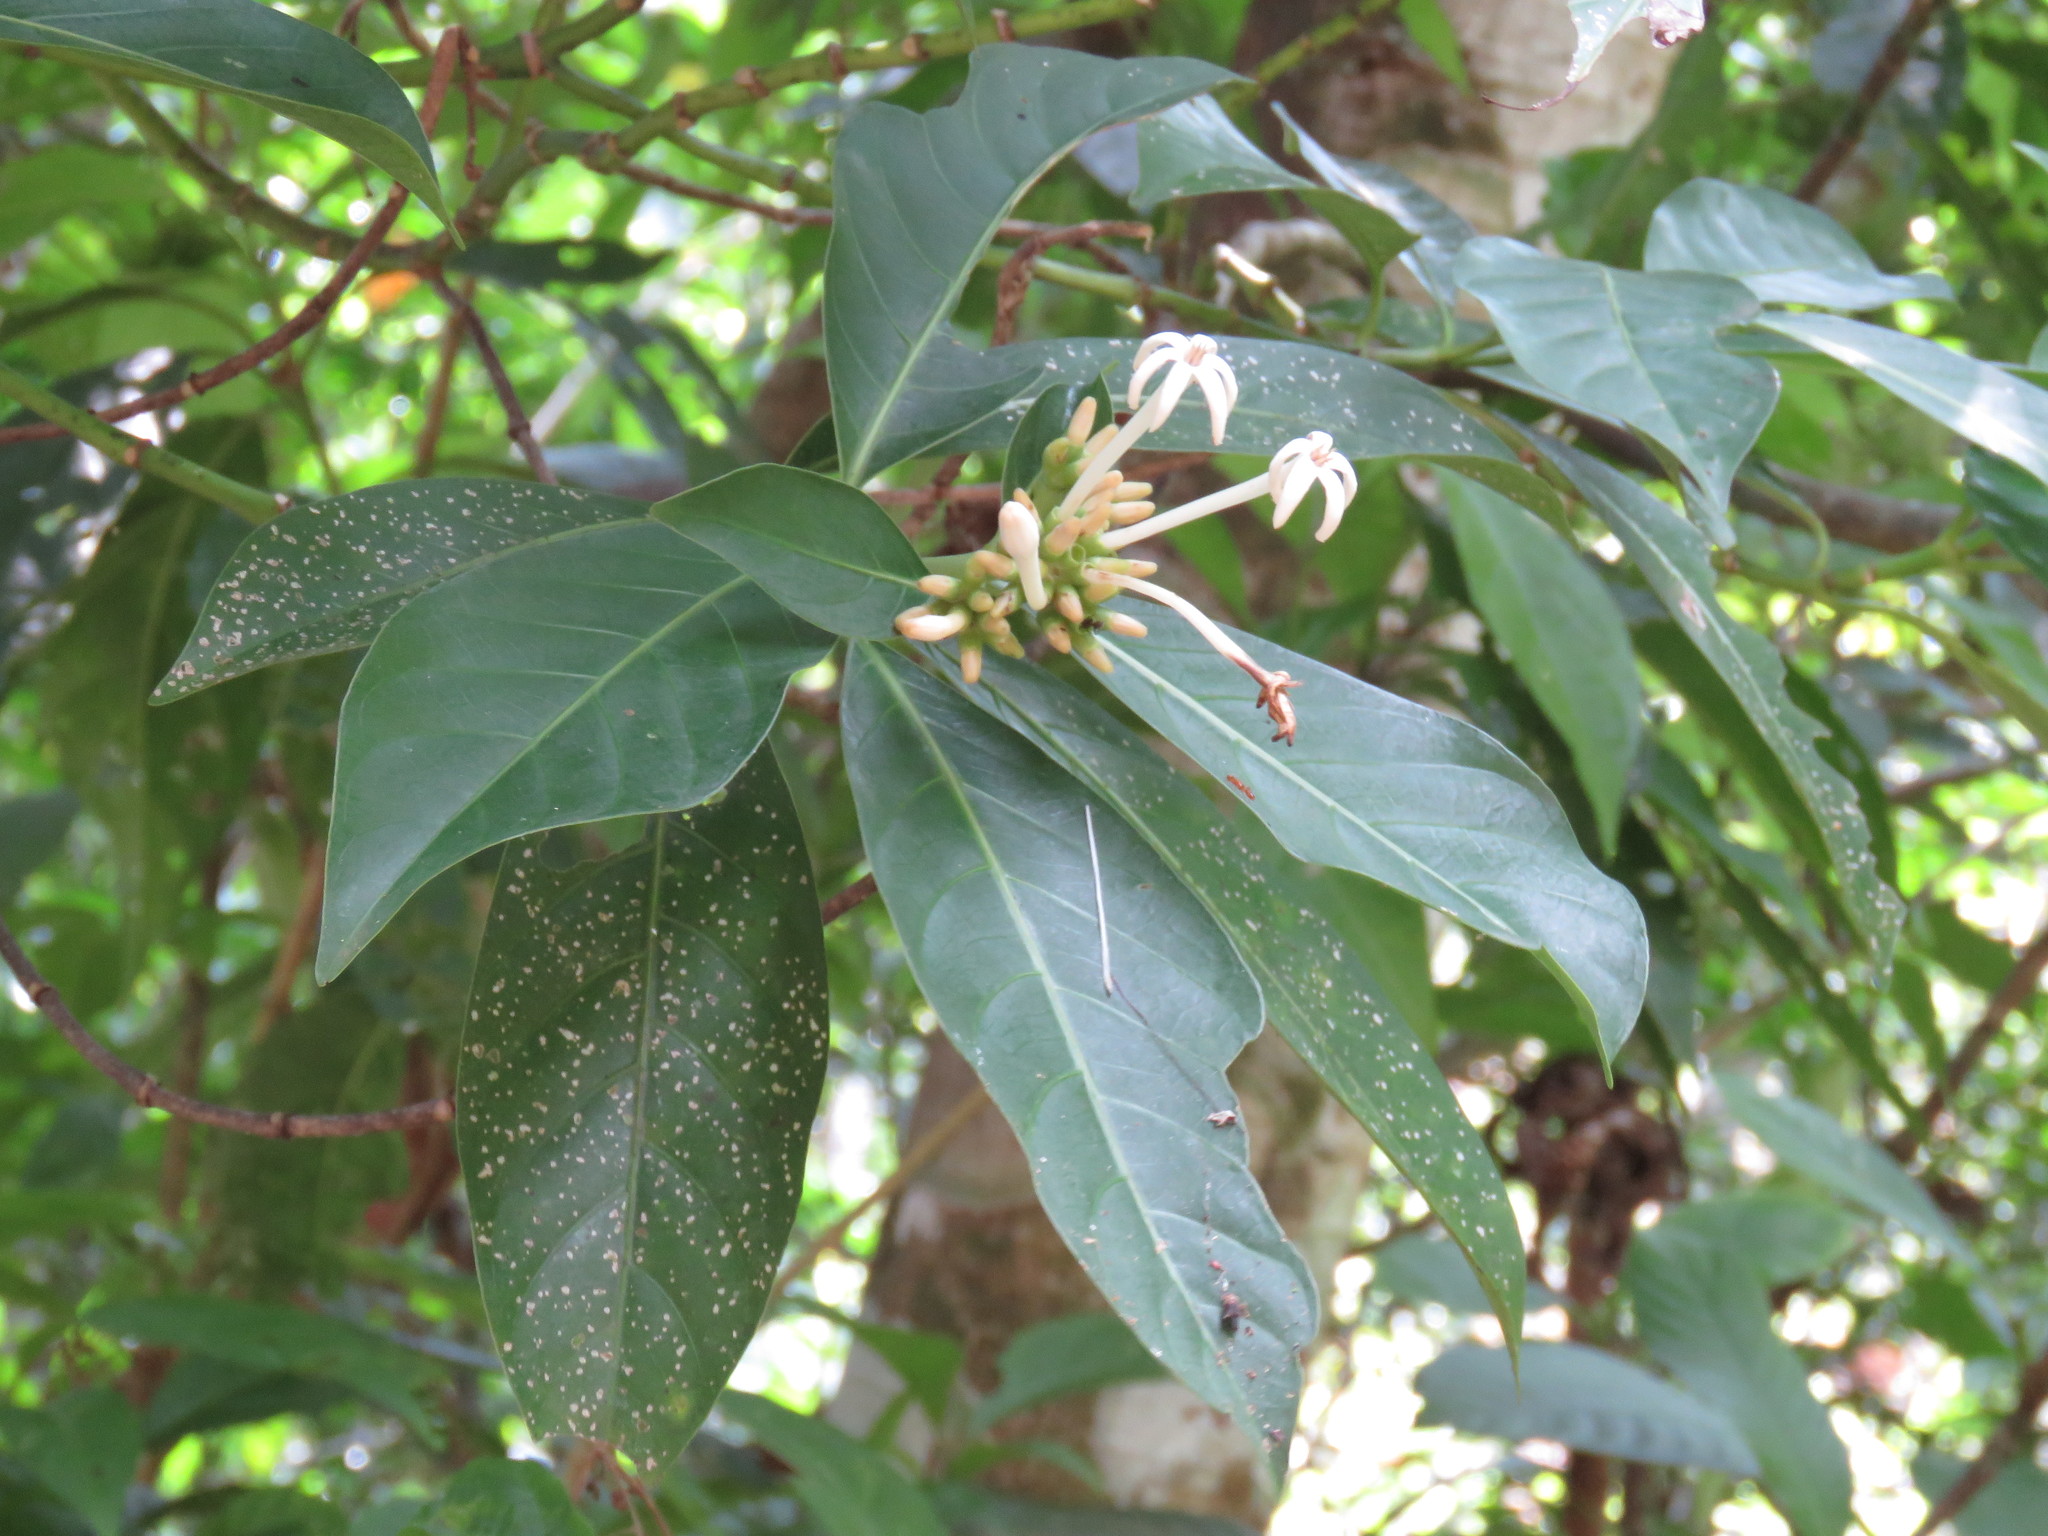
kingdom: Plantae
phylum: Tracheophyta
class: Magnoliopsida
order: Gentianales
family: Rubiaceae
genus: Palicourea
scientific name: Palicourea faxlucens
